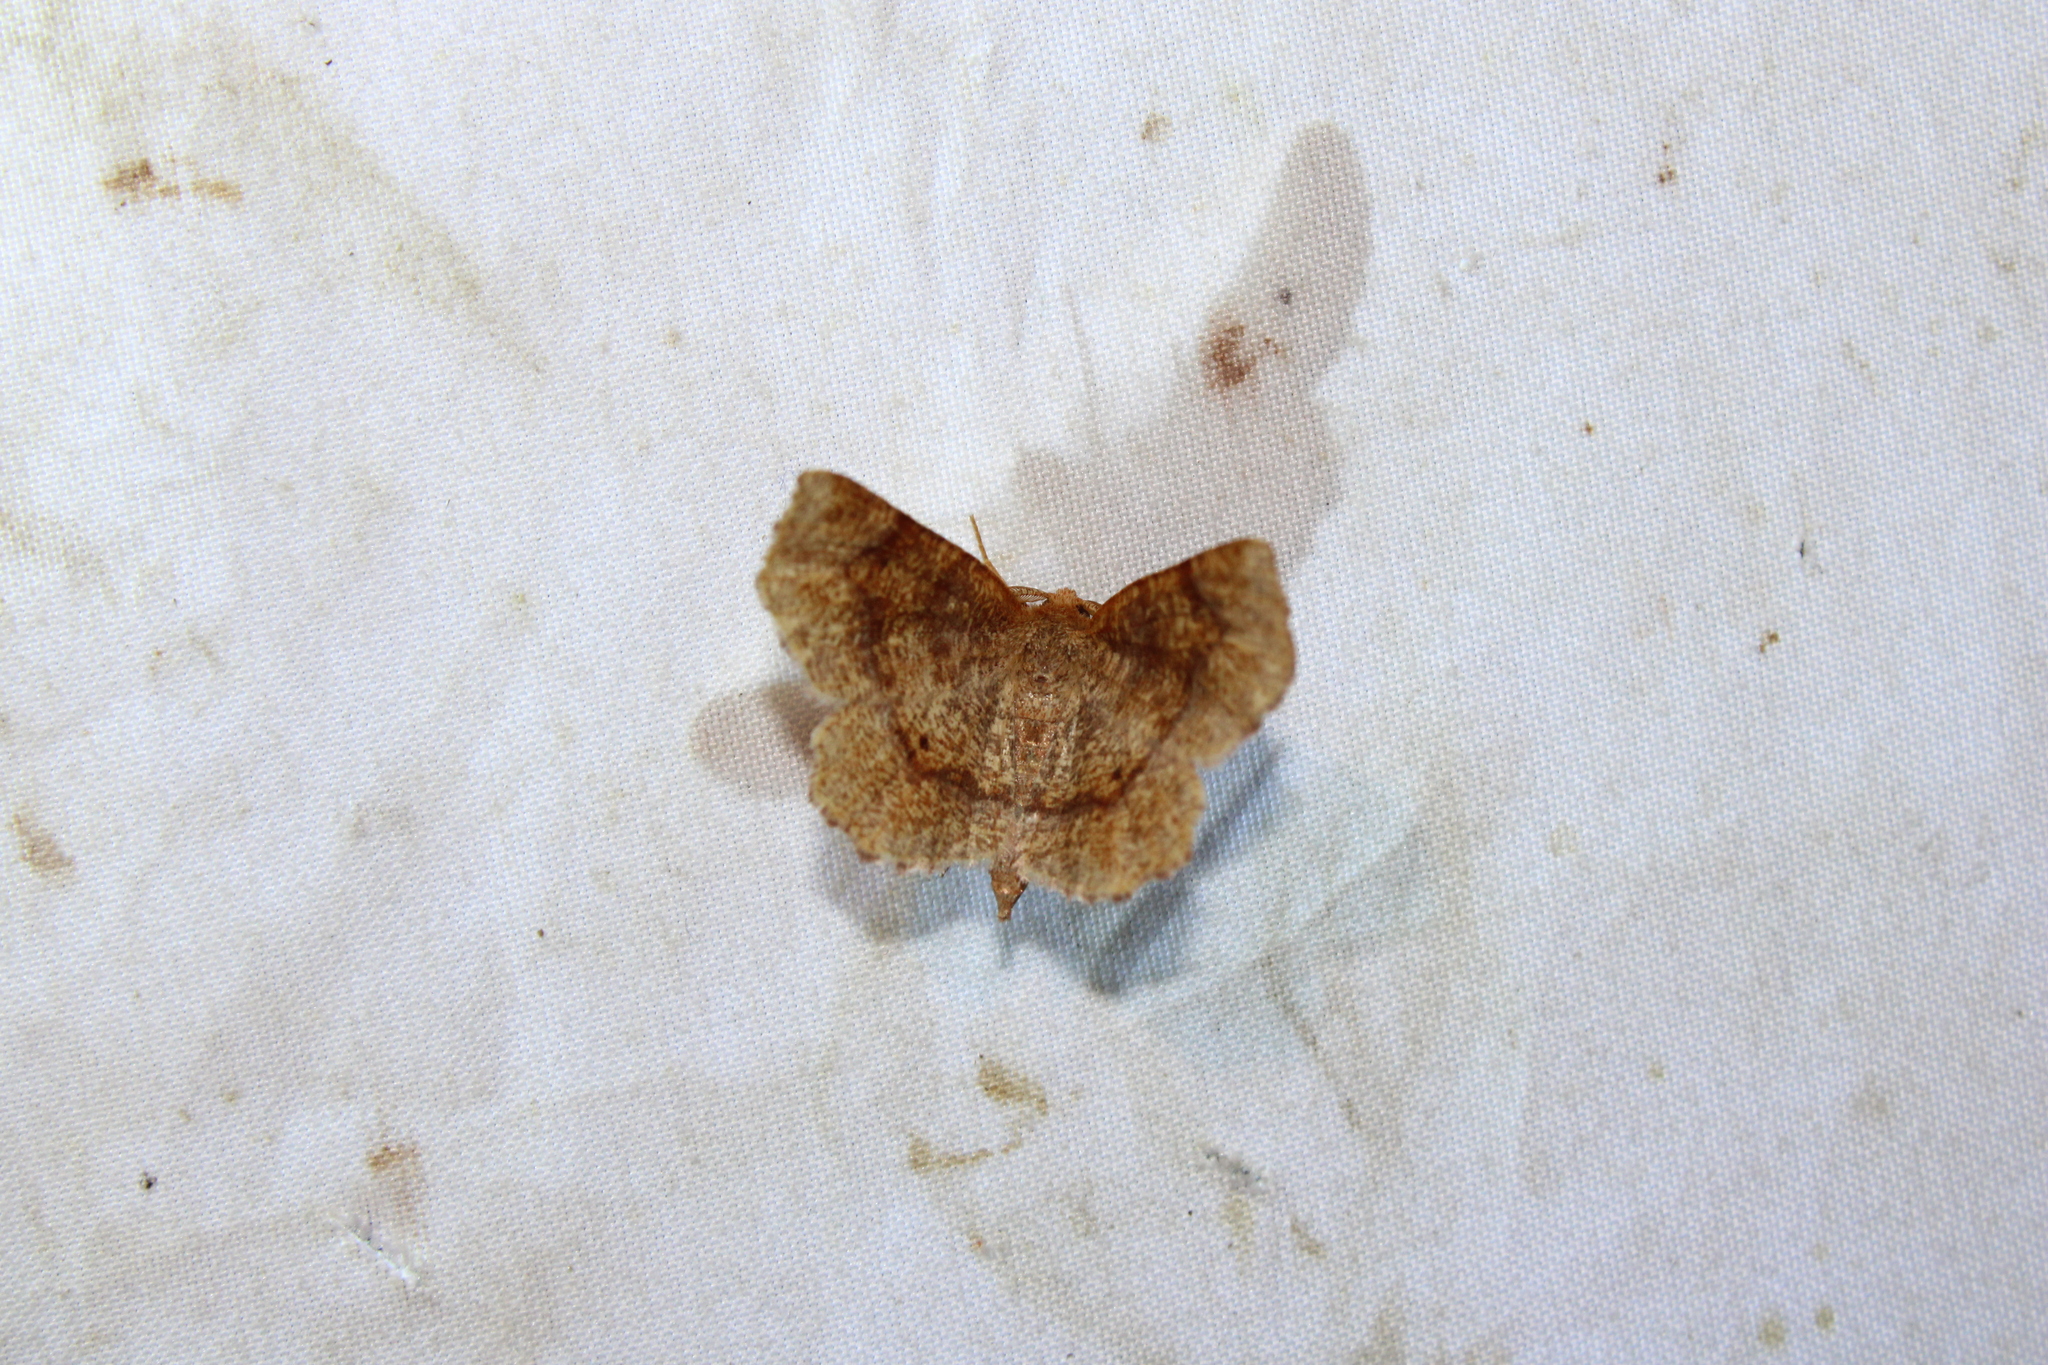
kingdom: Animalia
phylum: Arthropoda
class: Insecta
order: Lepidoptera
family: Geometridae
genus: Metarranthis
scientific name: Metarranthis hypochraria
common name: Common metarranthis
